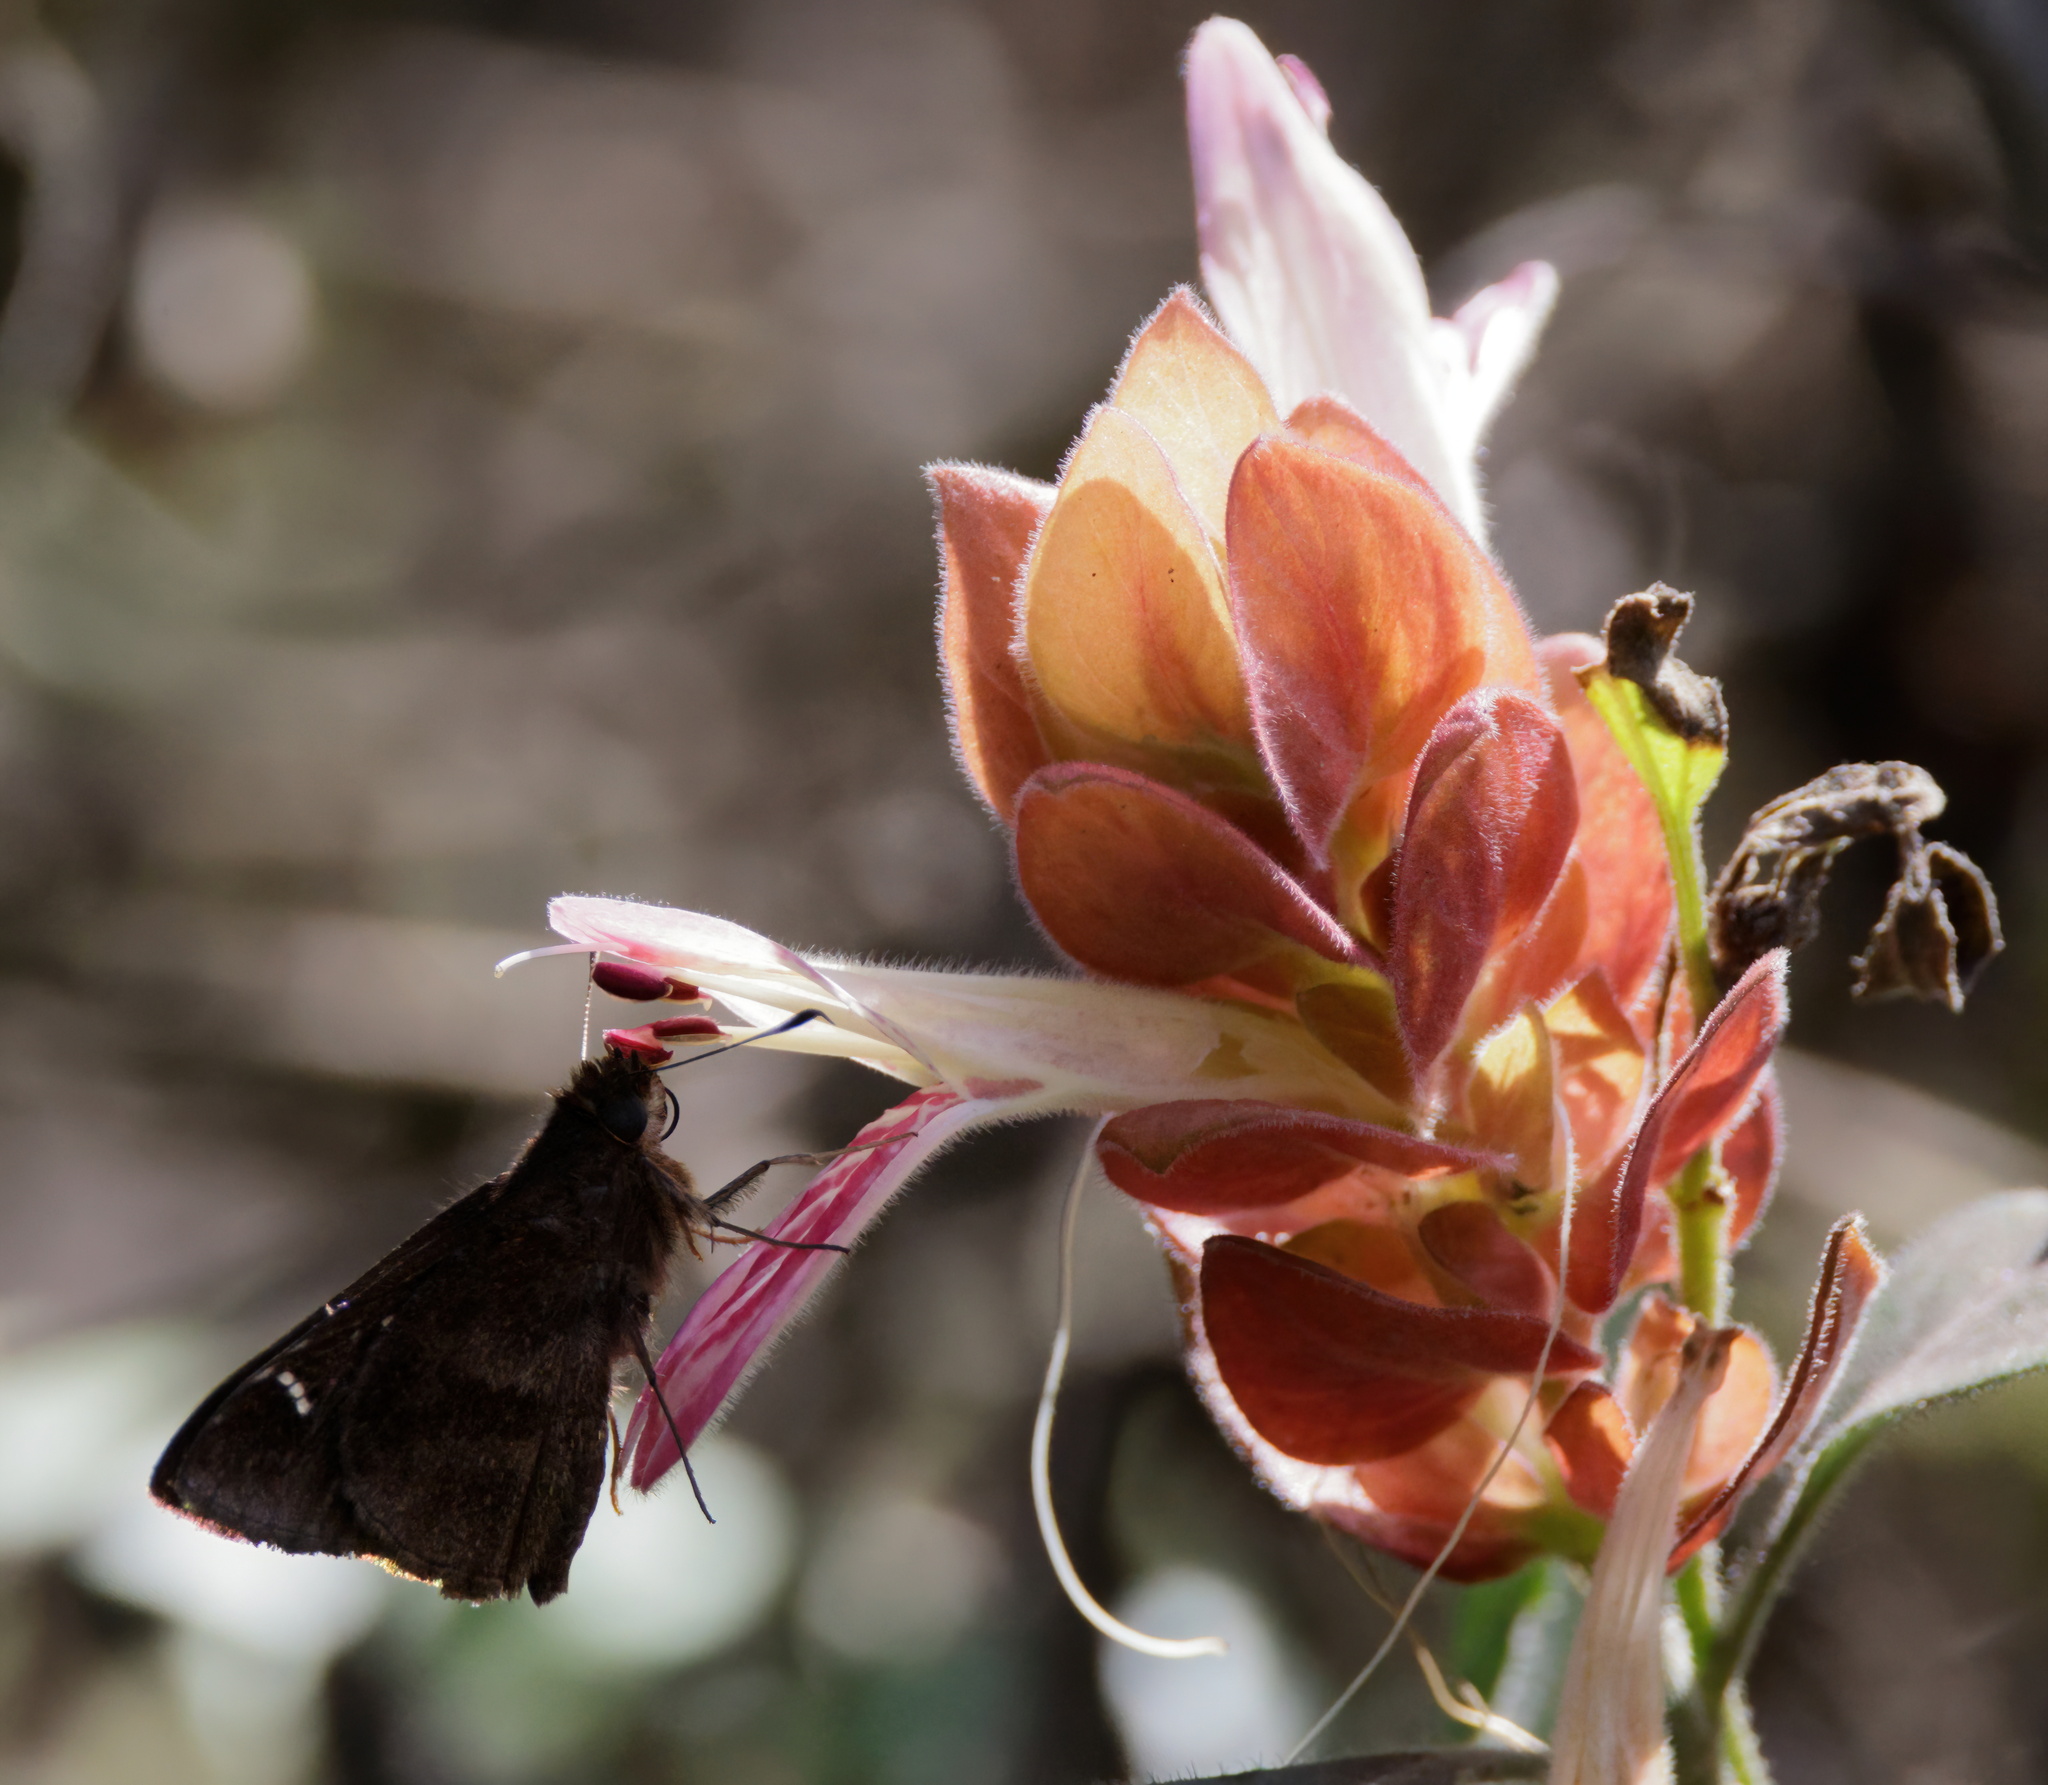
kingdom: Animalia
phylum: Arthropoda
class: Insecta
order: Lepidoptera
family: Hesperiidae
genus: Lerema
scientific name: Lerema accius
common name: Clouded skipper
